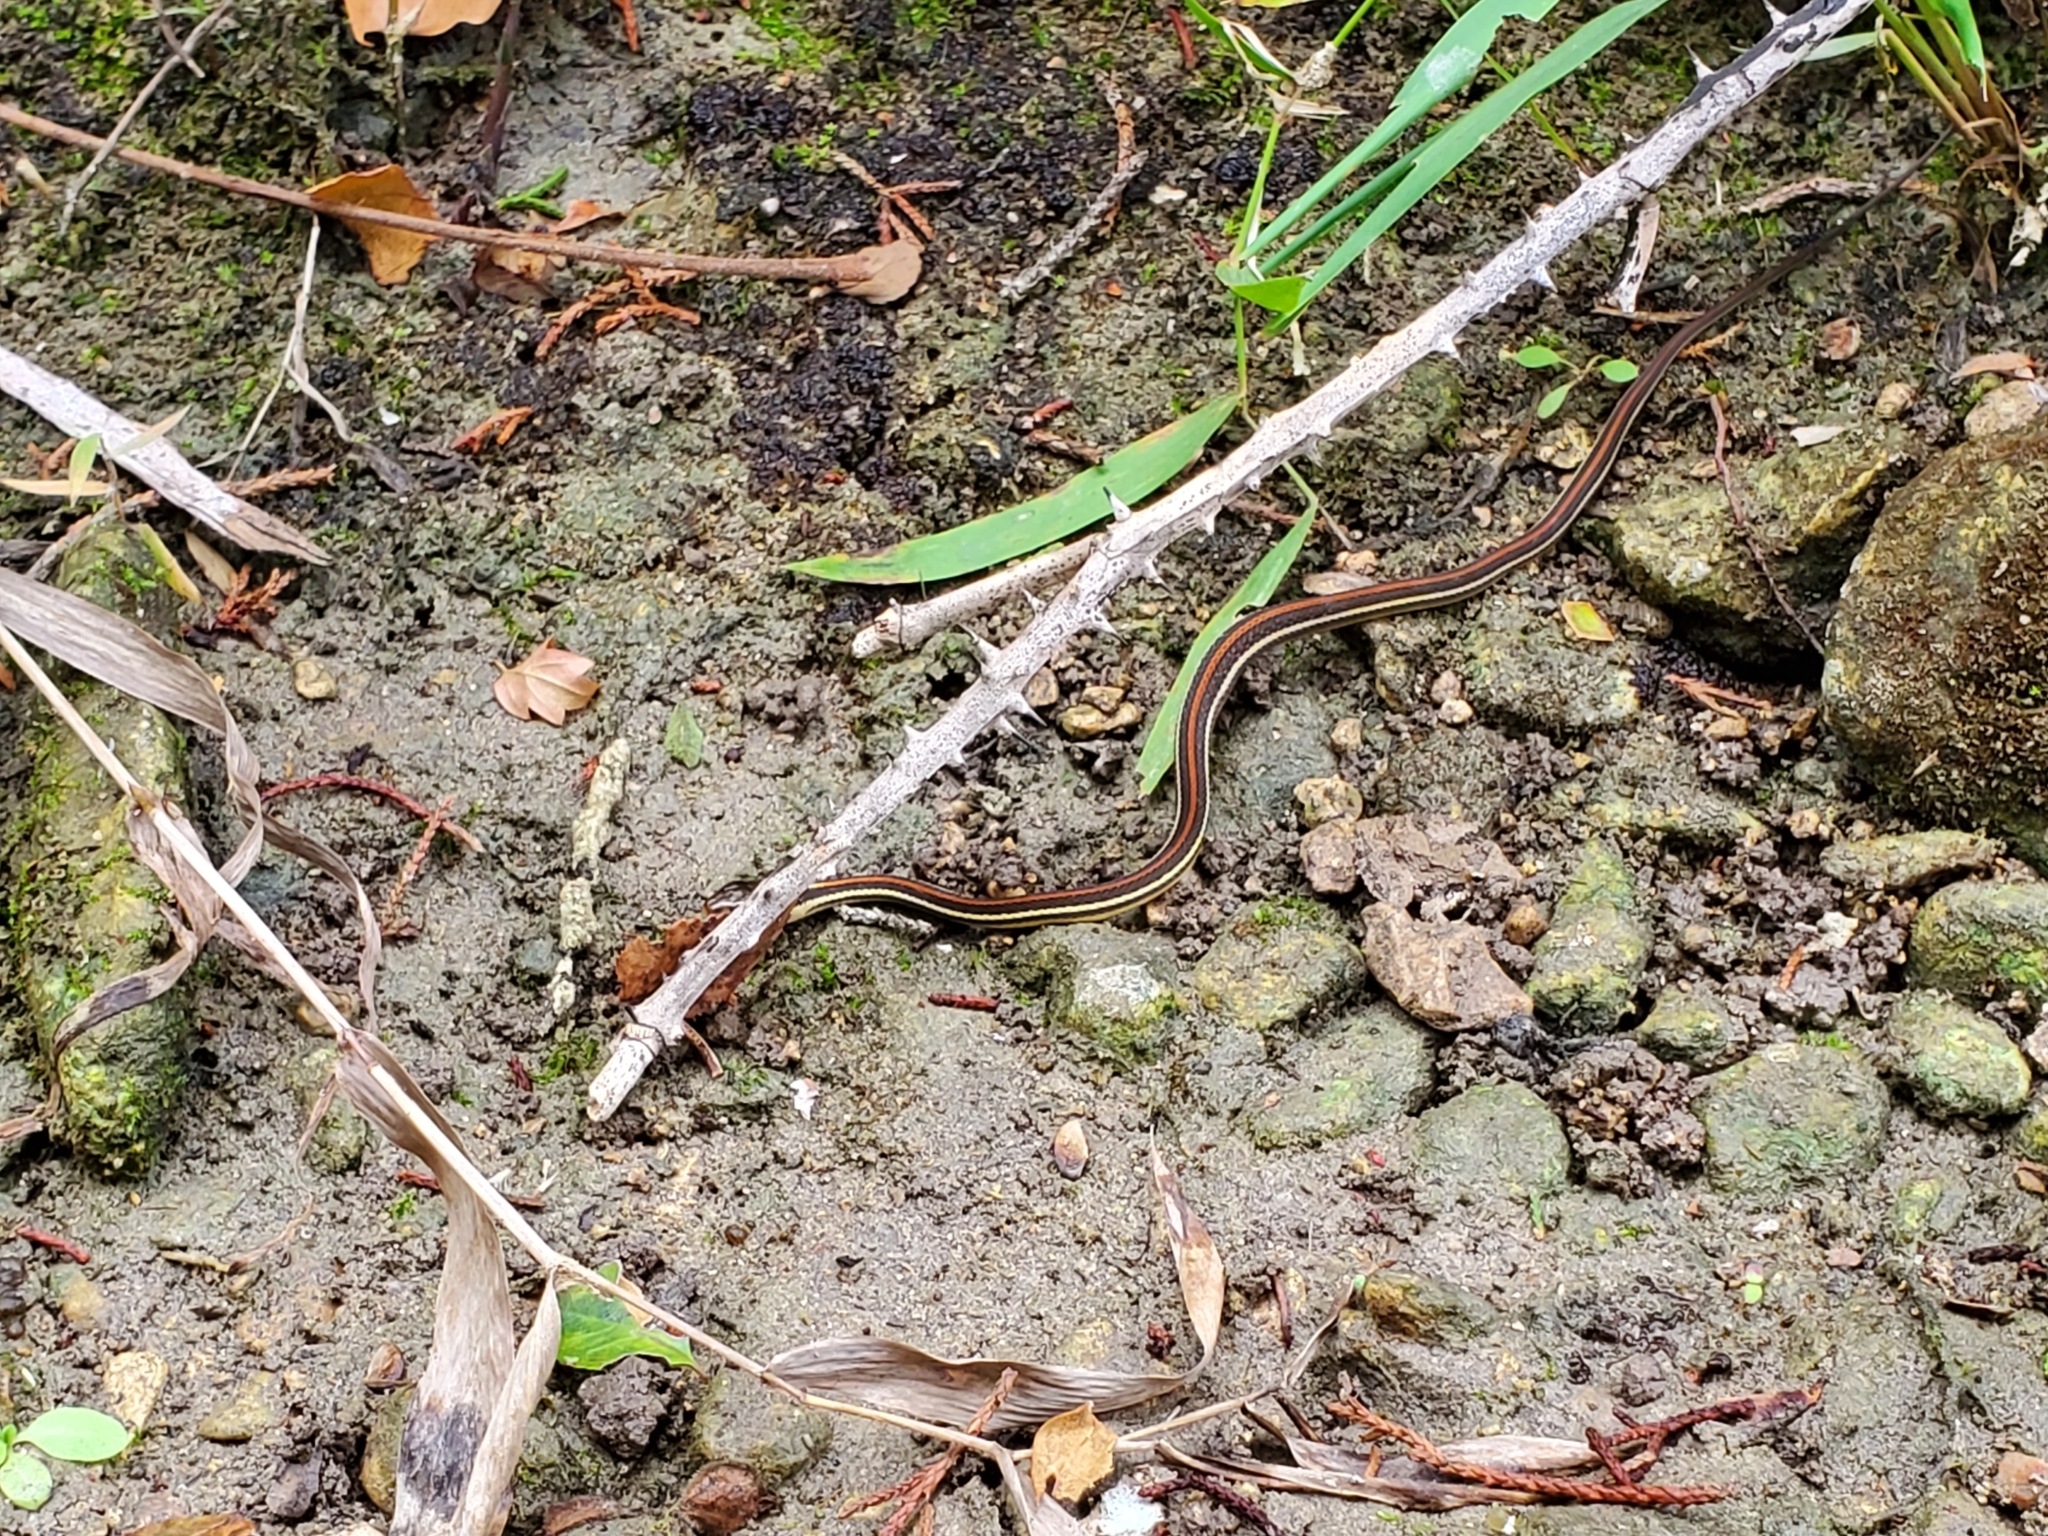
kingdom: Animalia
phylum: Chordata
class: Squamata
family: Colubridae
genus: Thamnophis
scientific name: Thamnophis proximus
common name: Western ribbon snake
